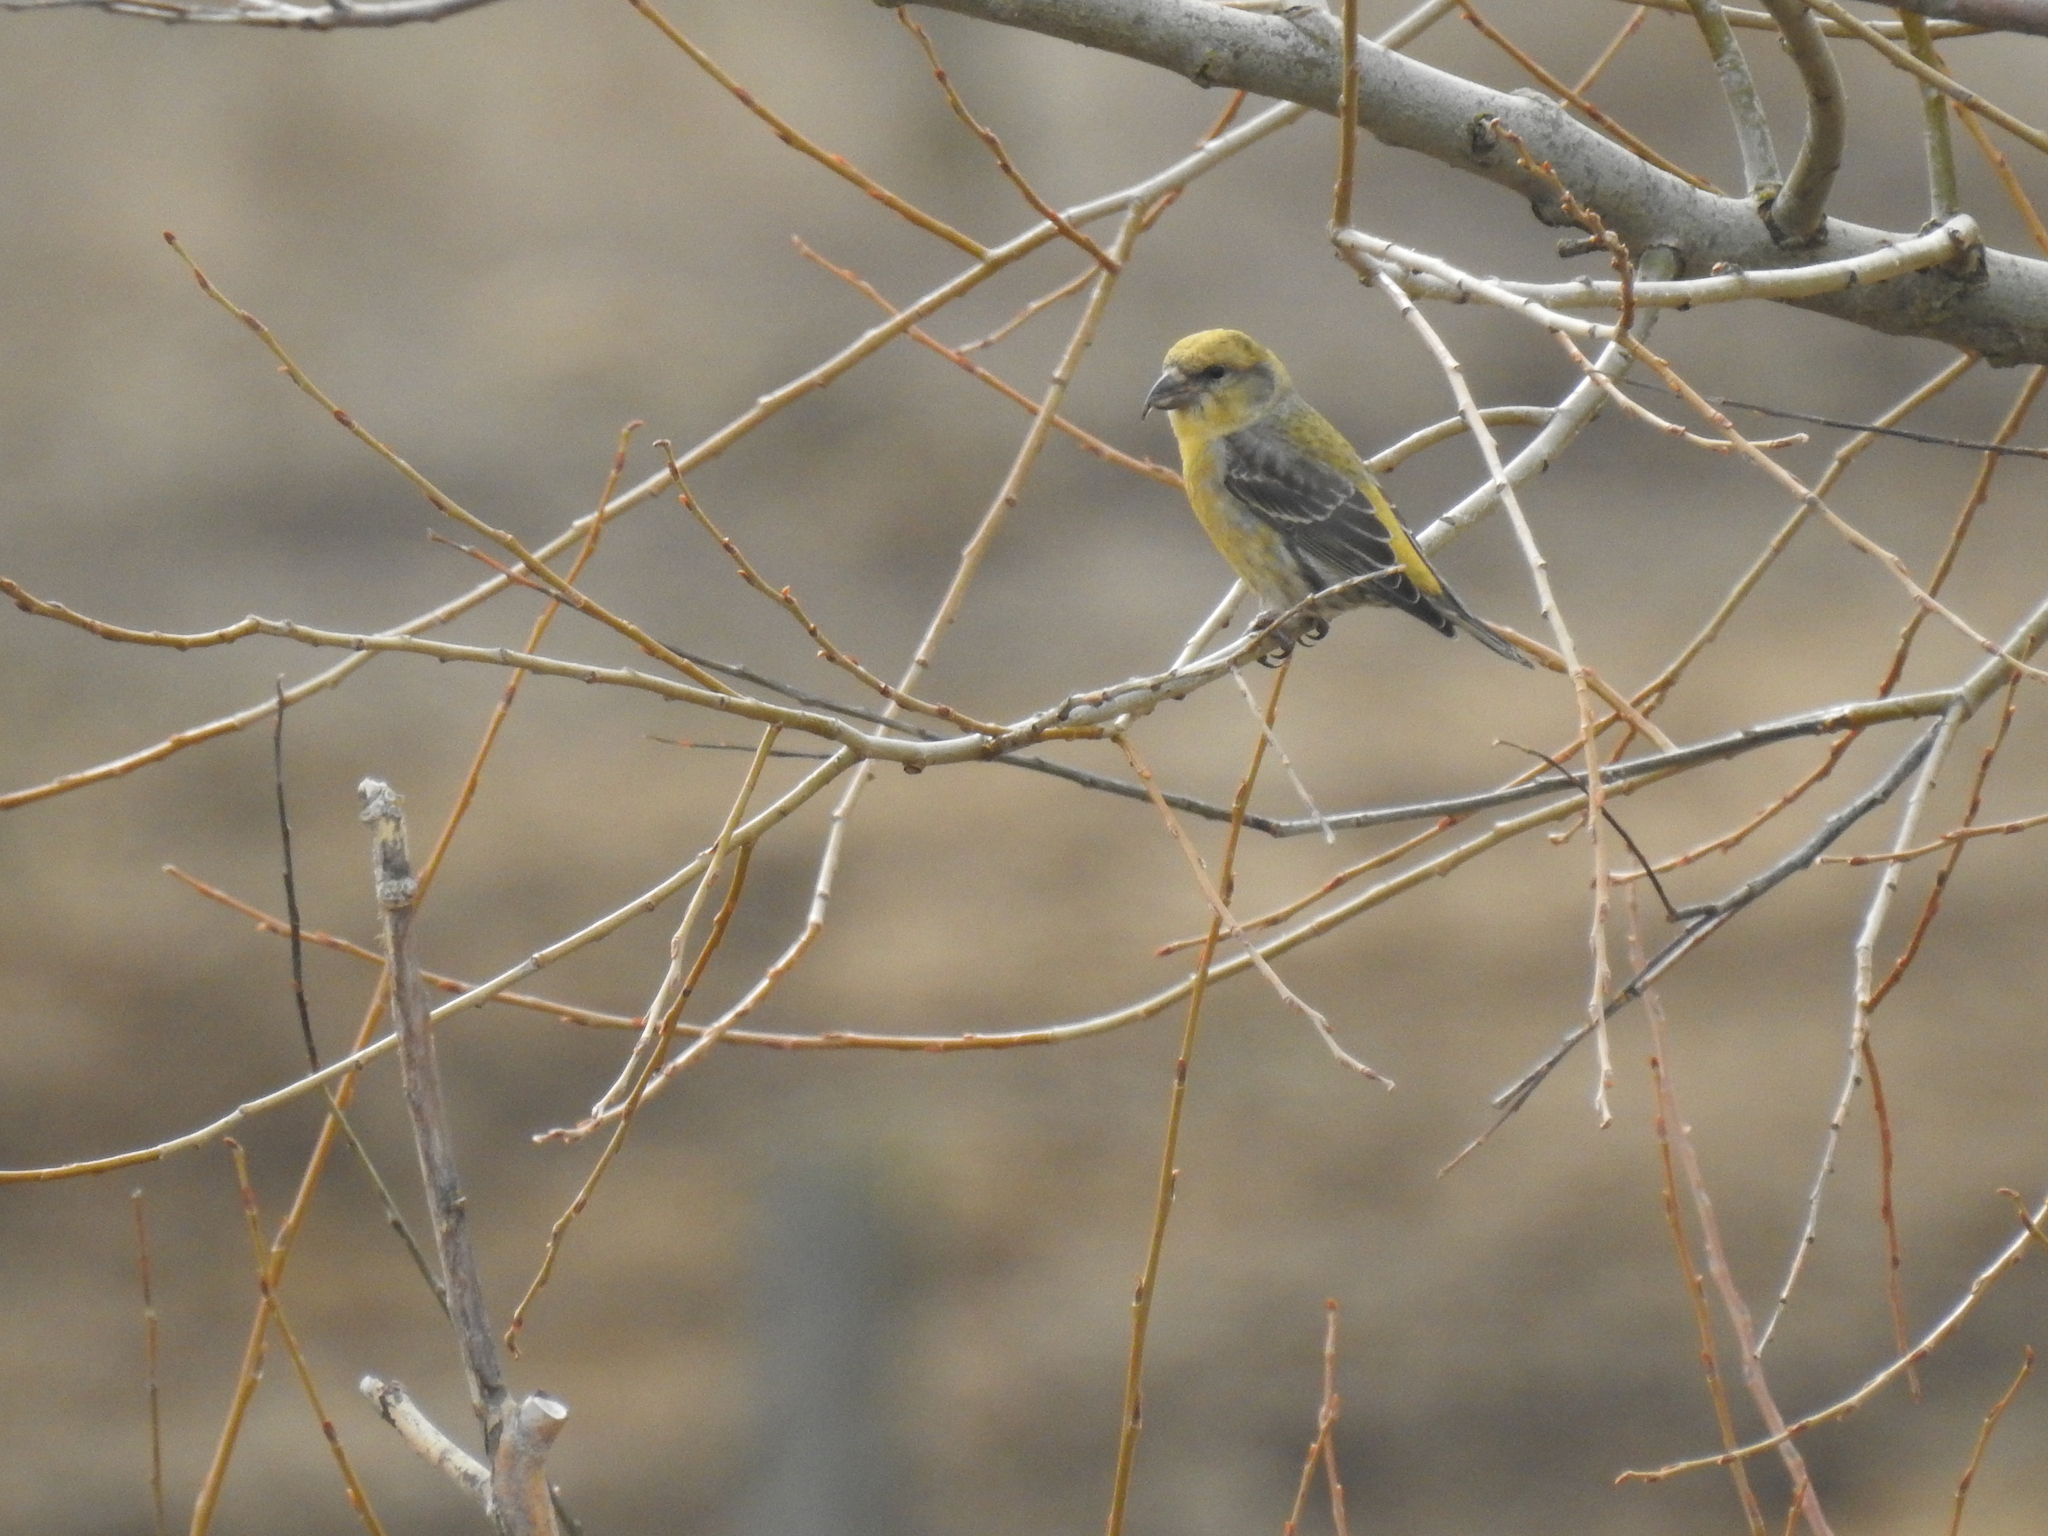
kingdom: Animalia
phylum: Chordata
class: Aves
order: Passeriformes
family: Fringillidae
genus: Loxia
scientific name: Loxia curvirostra
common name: Red crossbill
